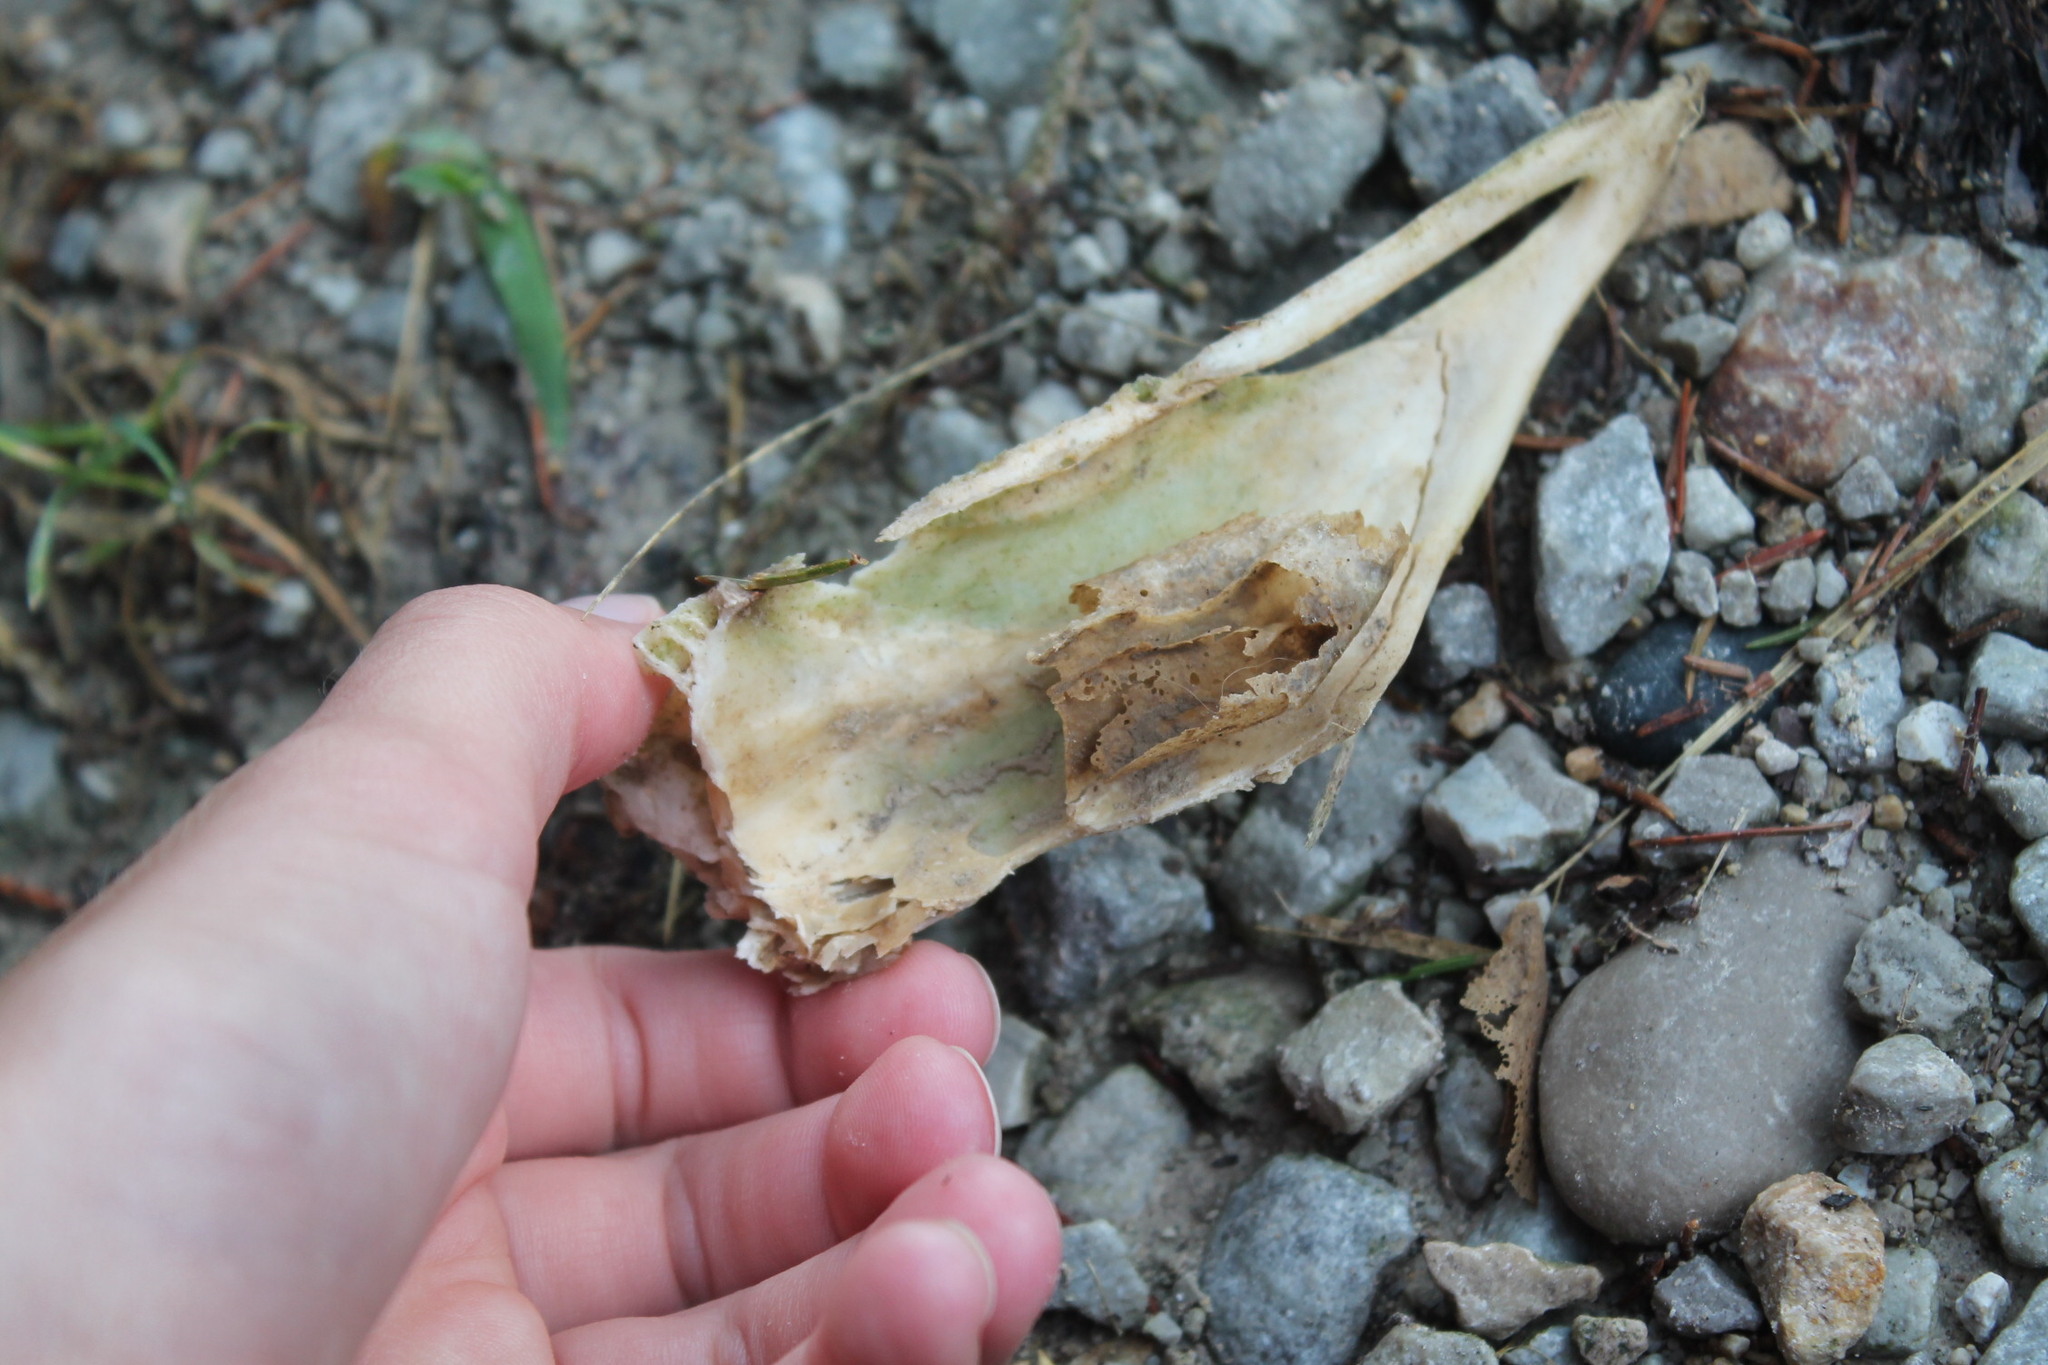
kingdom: Animalia
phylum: Chordata
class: Mammalia
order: Artiodactyla
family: Cervidae
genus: Odocoileus
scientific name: Odocoileus virginianus
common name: White-tailed deer
